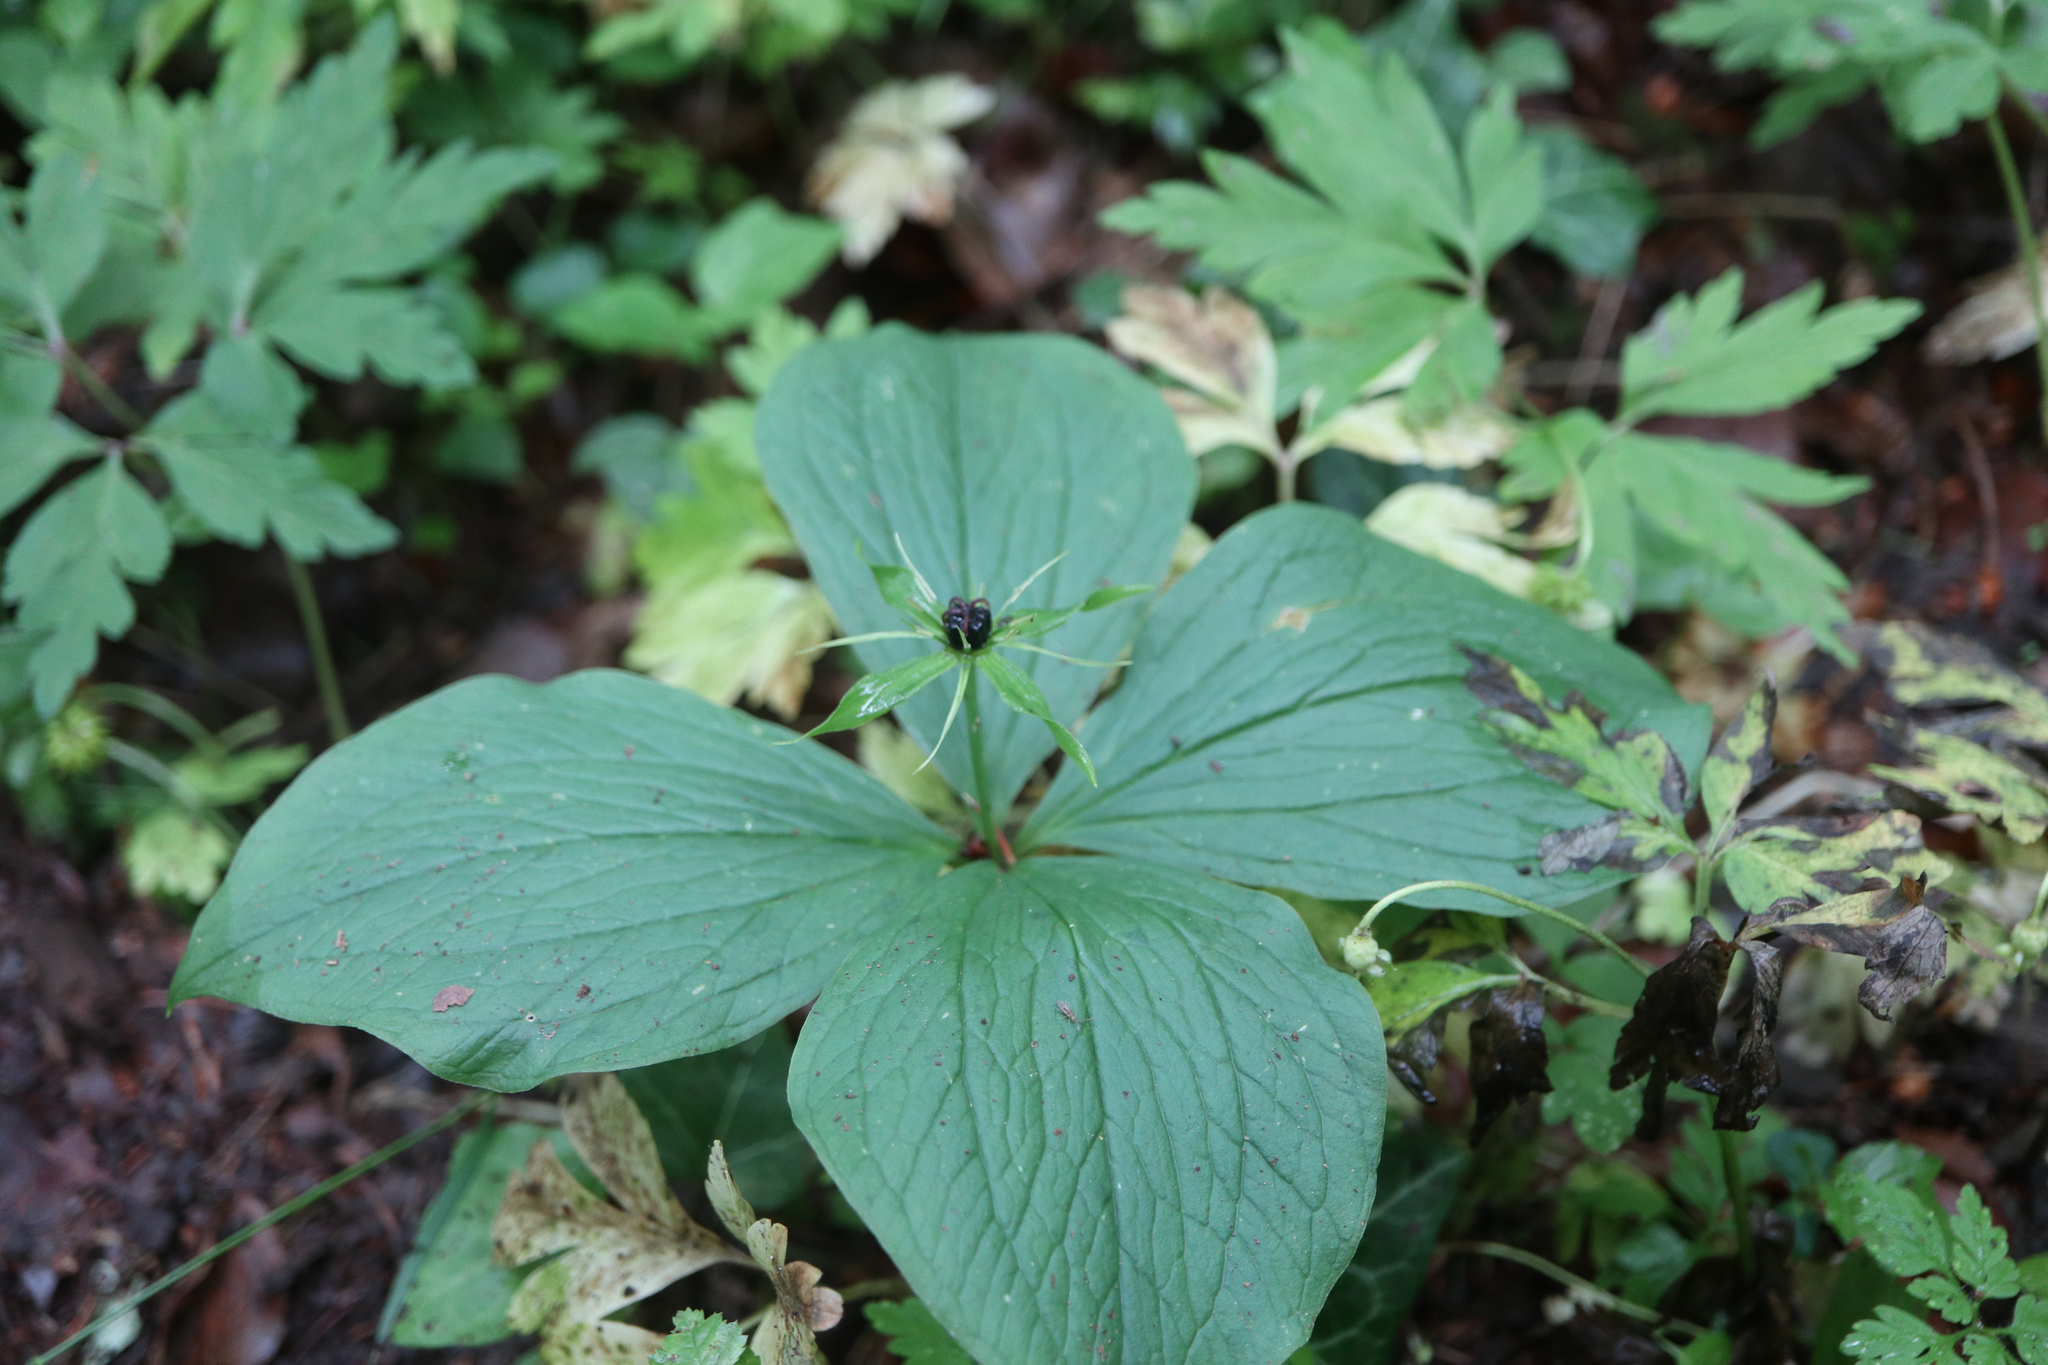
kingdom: Plantae
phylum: Tracheophyta
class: Liliopsida
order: Liliales
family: Melanthiaceae
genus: Paris
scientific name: Paris quadrifolia
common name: Herb-paris
